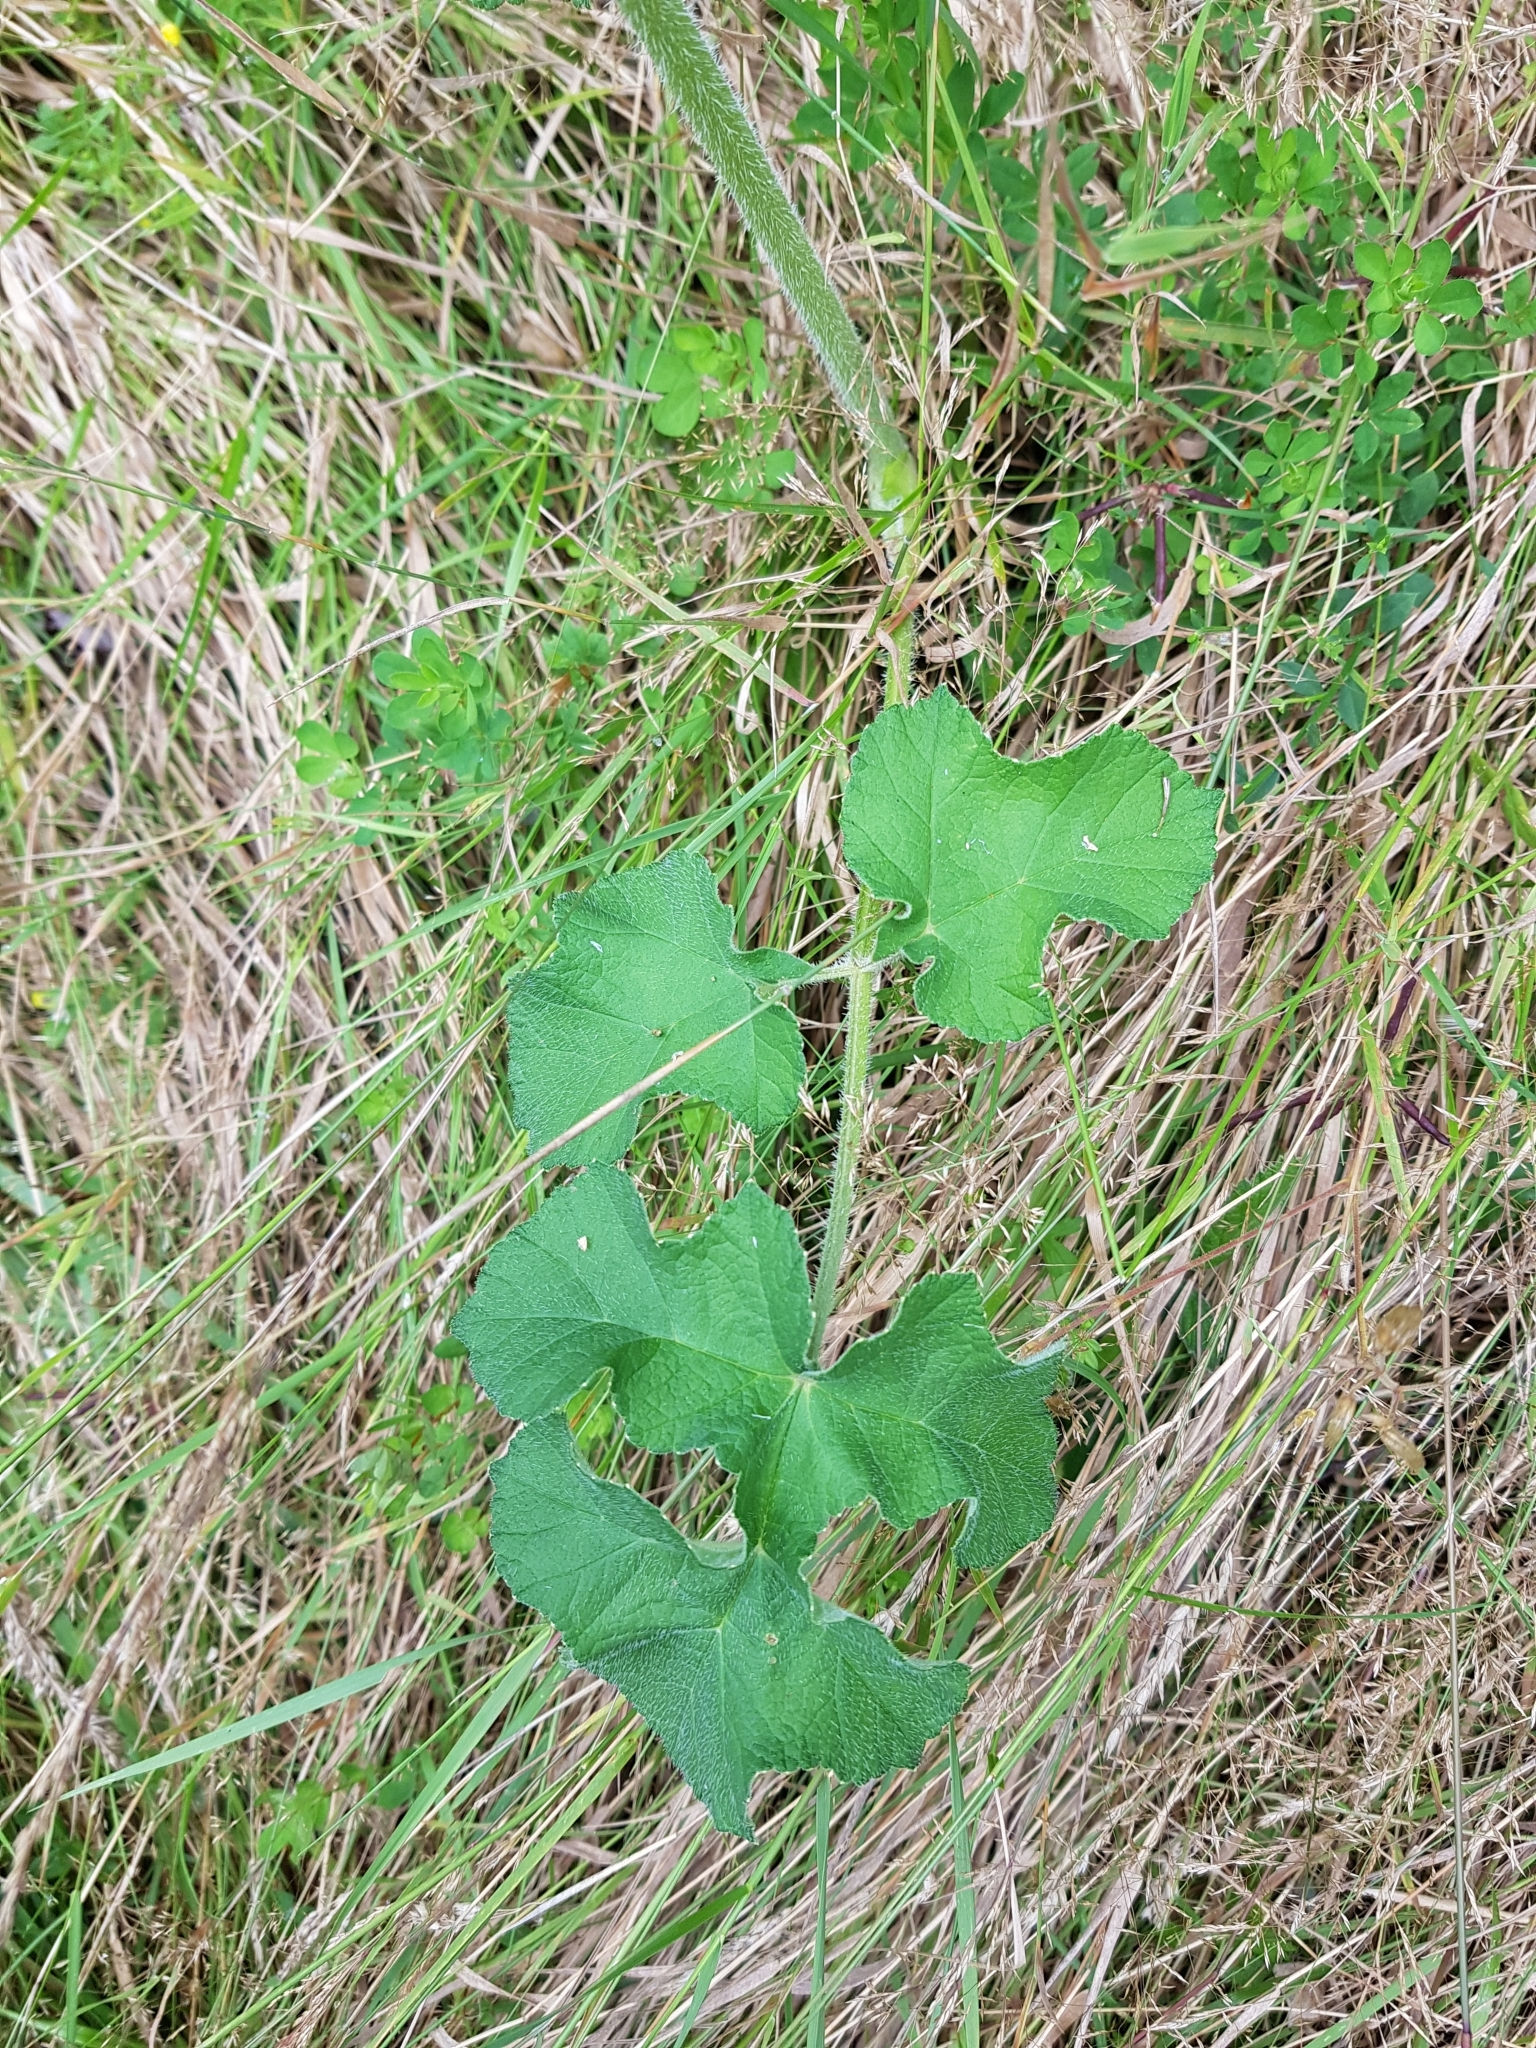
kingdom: Plantae
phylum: Tracheophyta
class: Magnoliopsida
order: Apiales
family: Apiaceae
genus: Heracleum
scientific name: Heracleum sphondylium
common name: Hogweed
